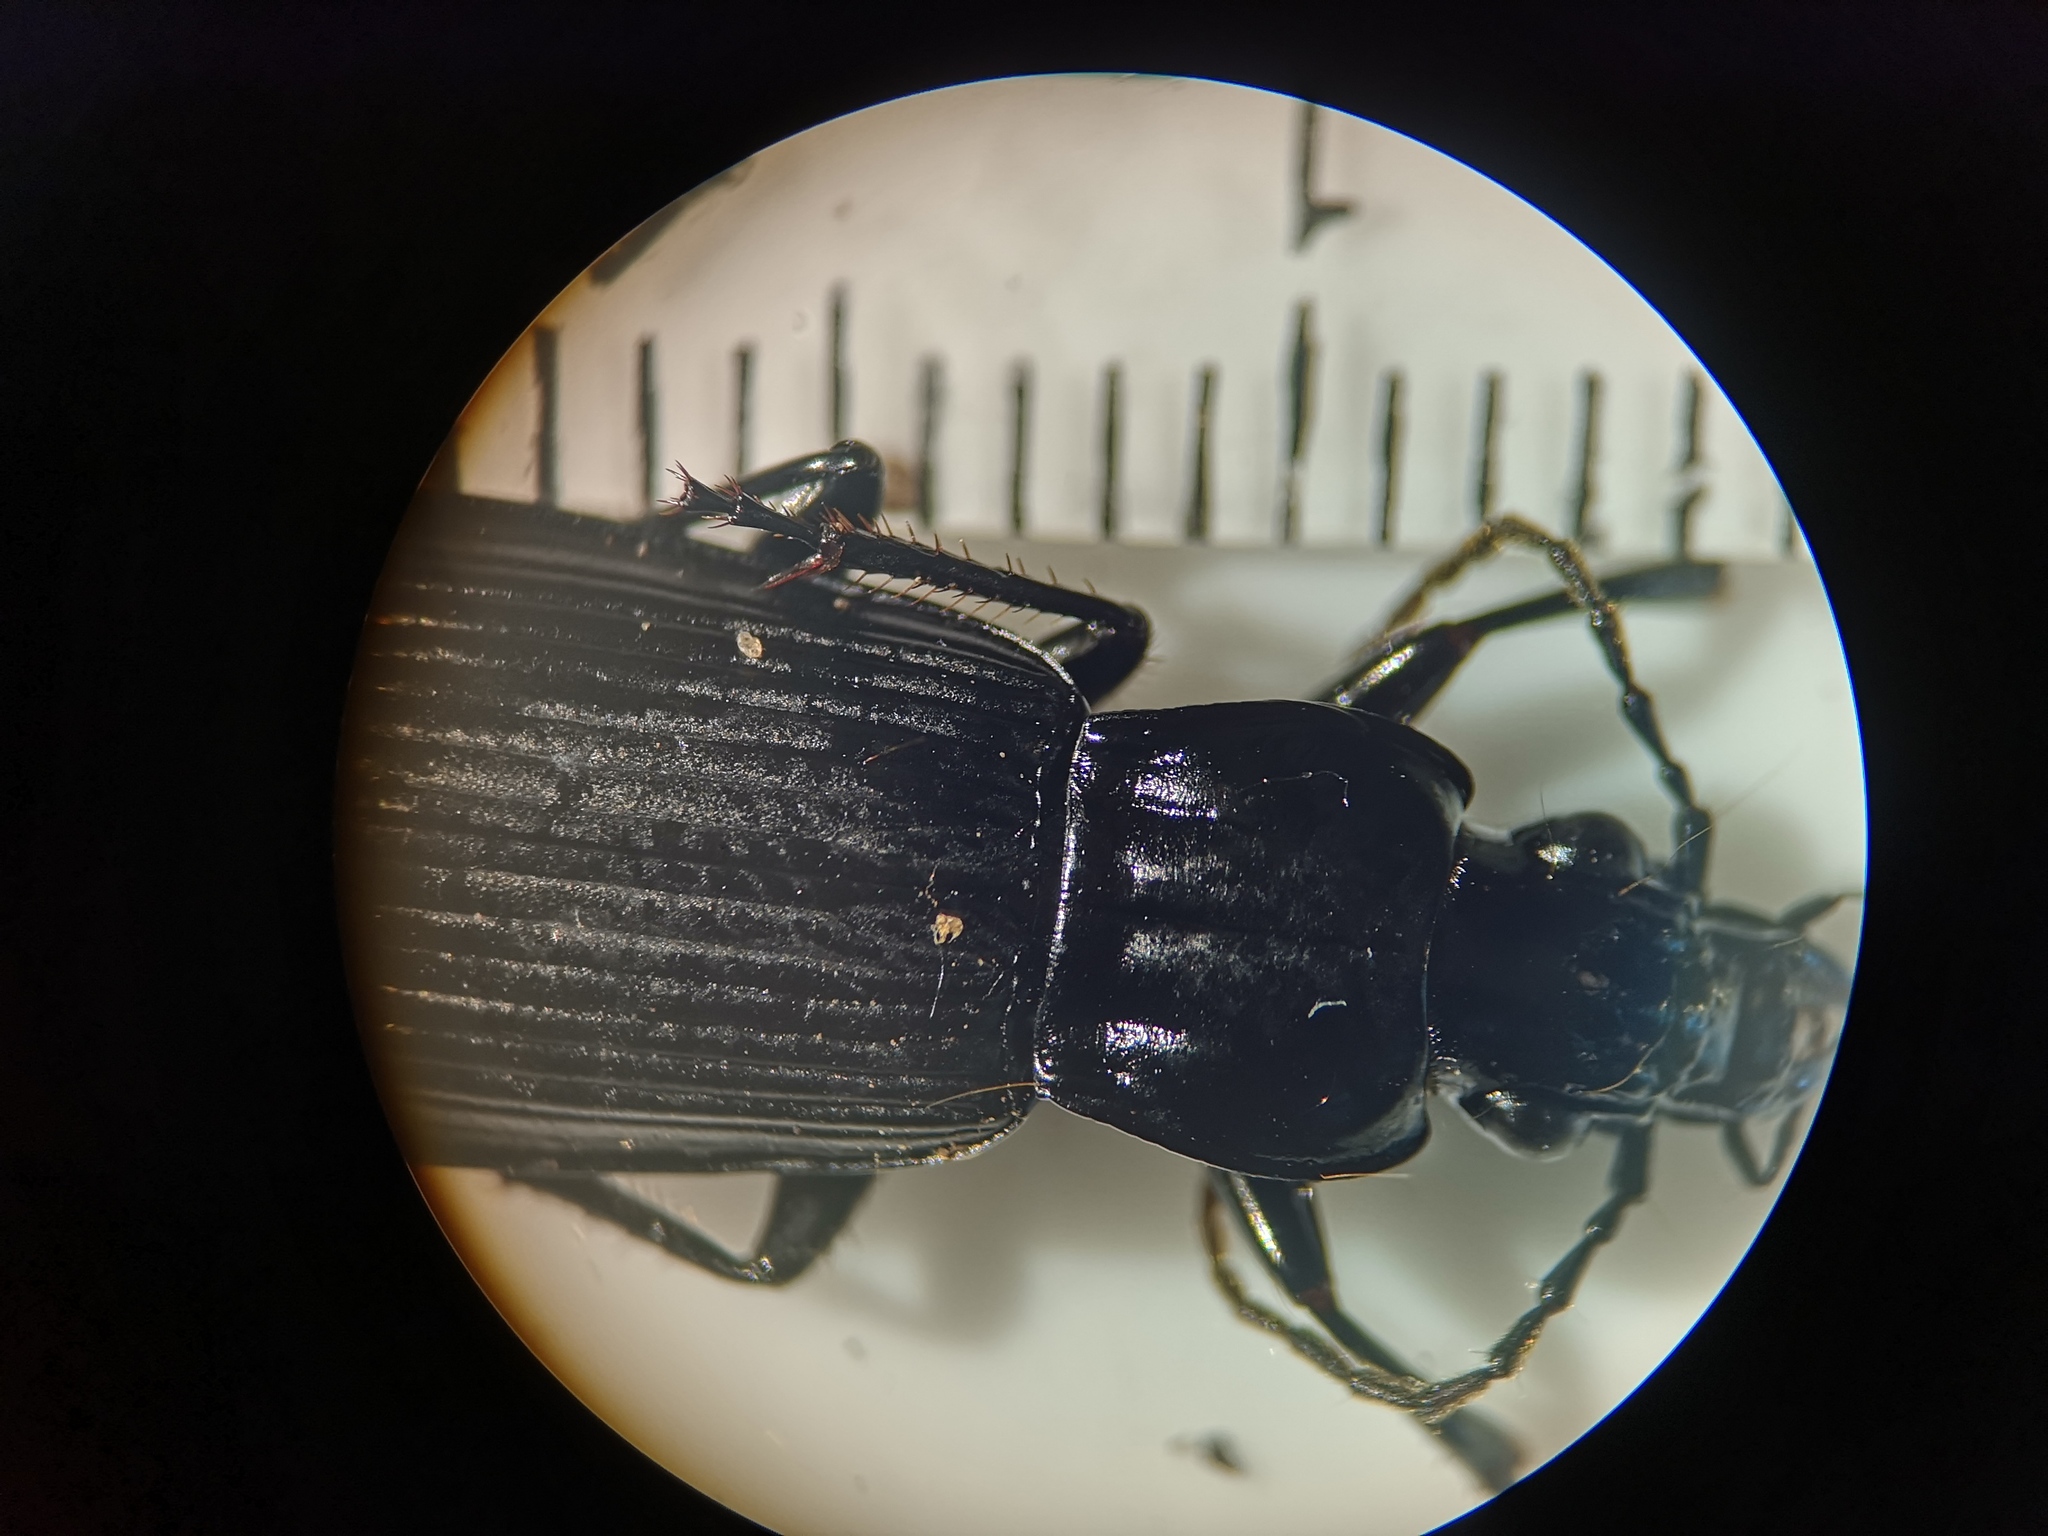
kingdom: Animalia
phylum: Arthropoda
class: Insecta
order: Coleoptera
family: Carabidae
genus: Pterostichus
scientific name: Pterostichus niger
